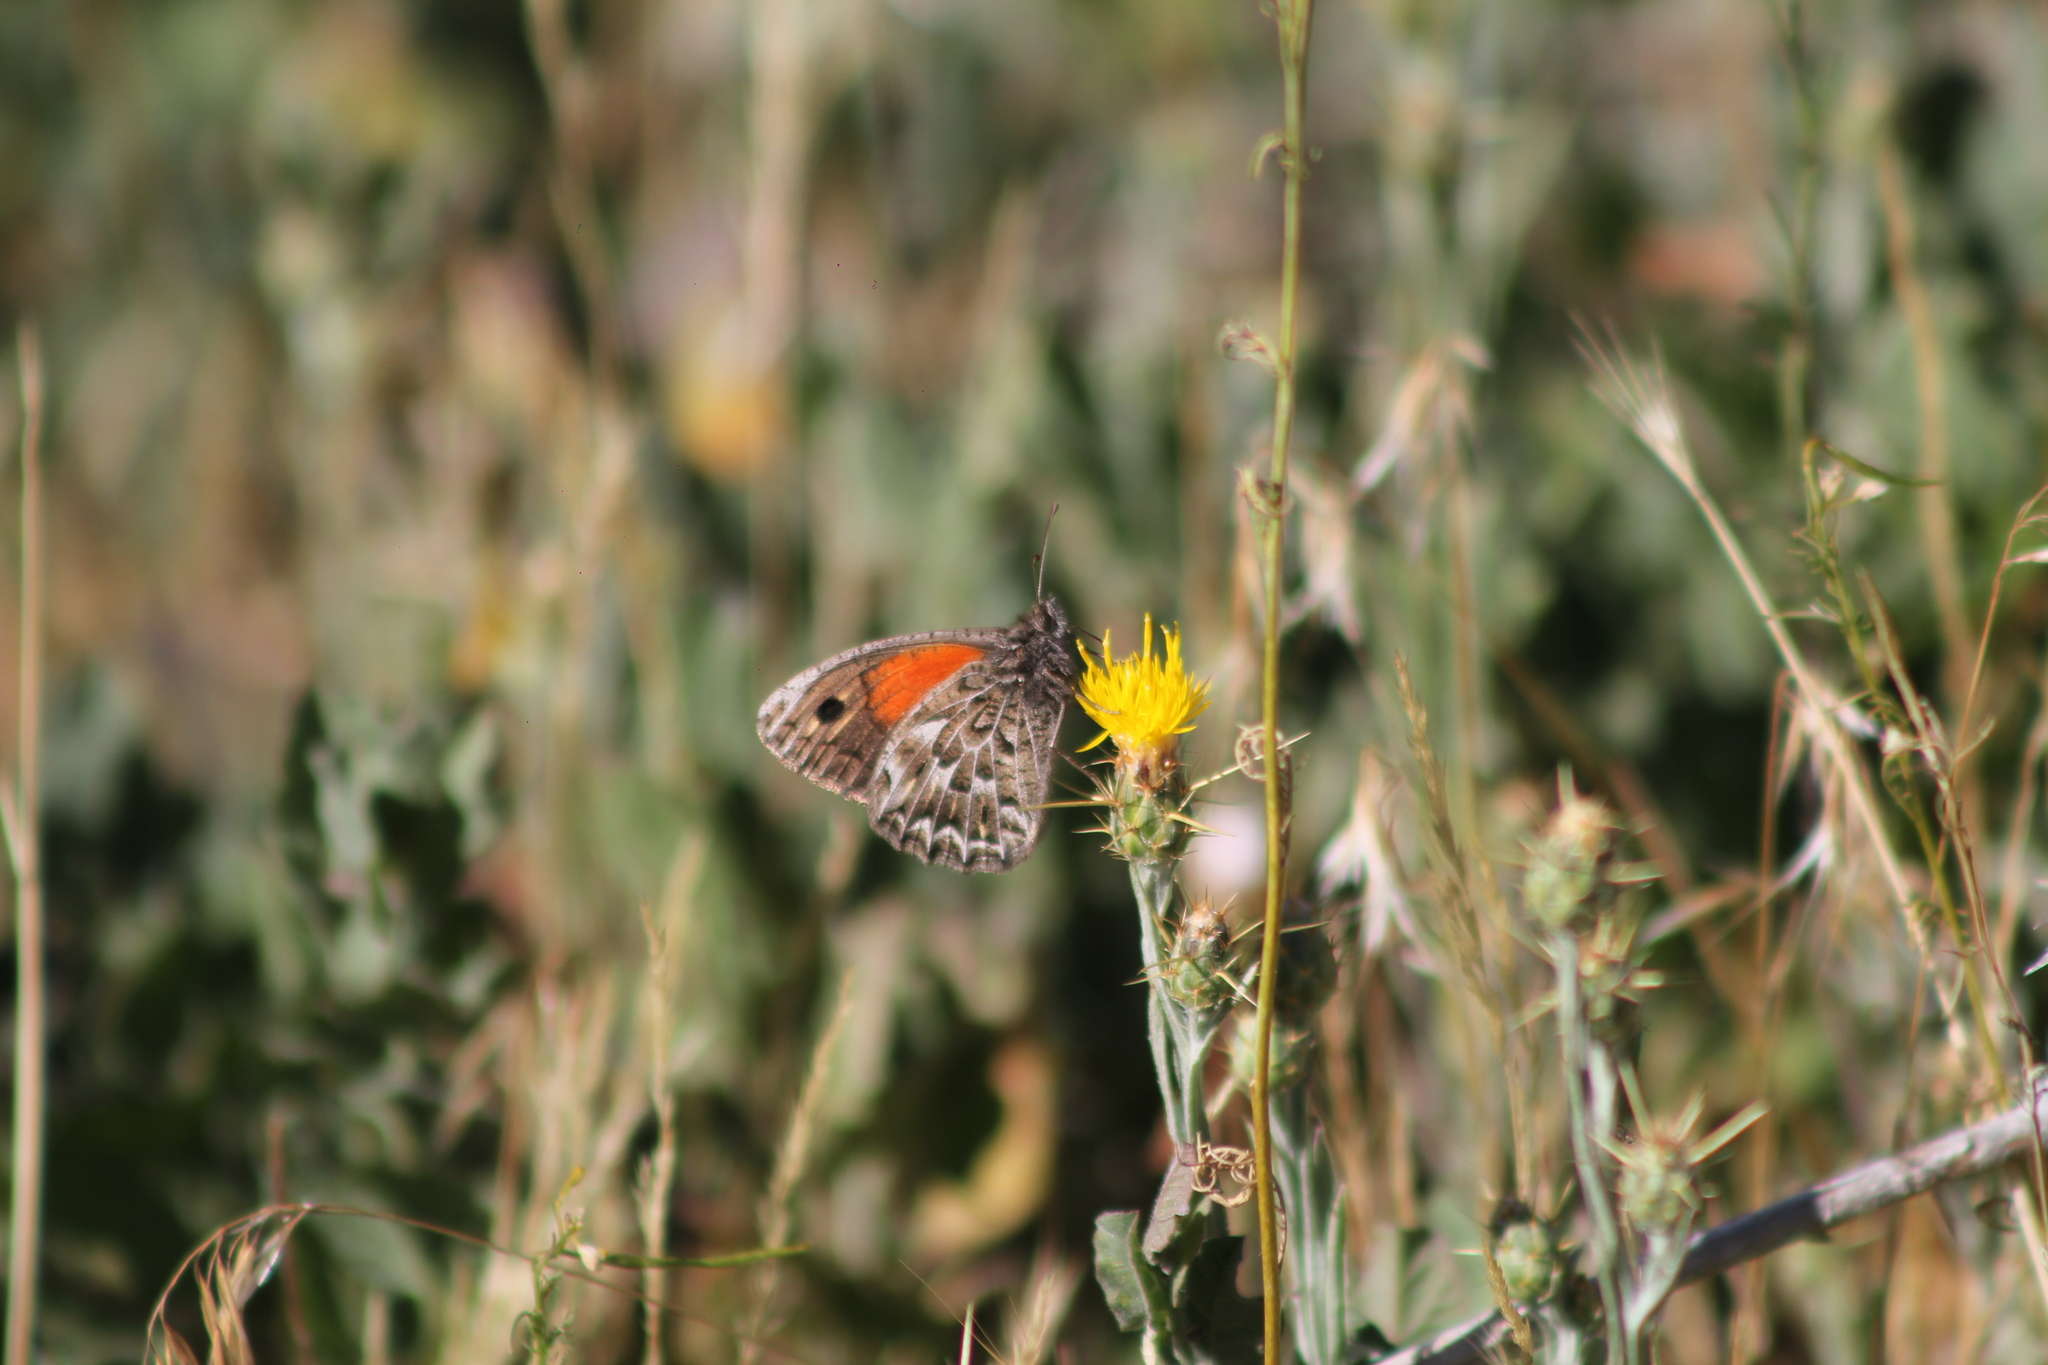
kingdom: Animalia
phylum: Arthropoda
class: Insecta
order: Lepidoptera
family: Nymphalidae
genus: Argyrophorus
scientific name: Argyrophorus
